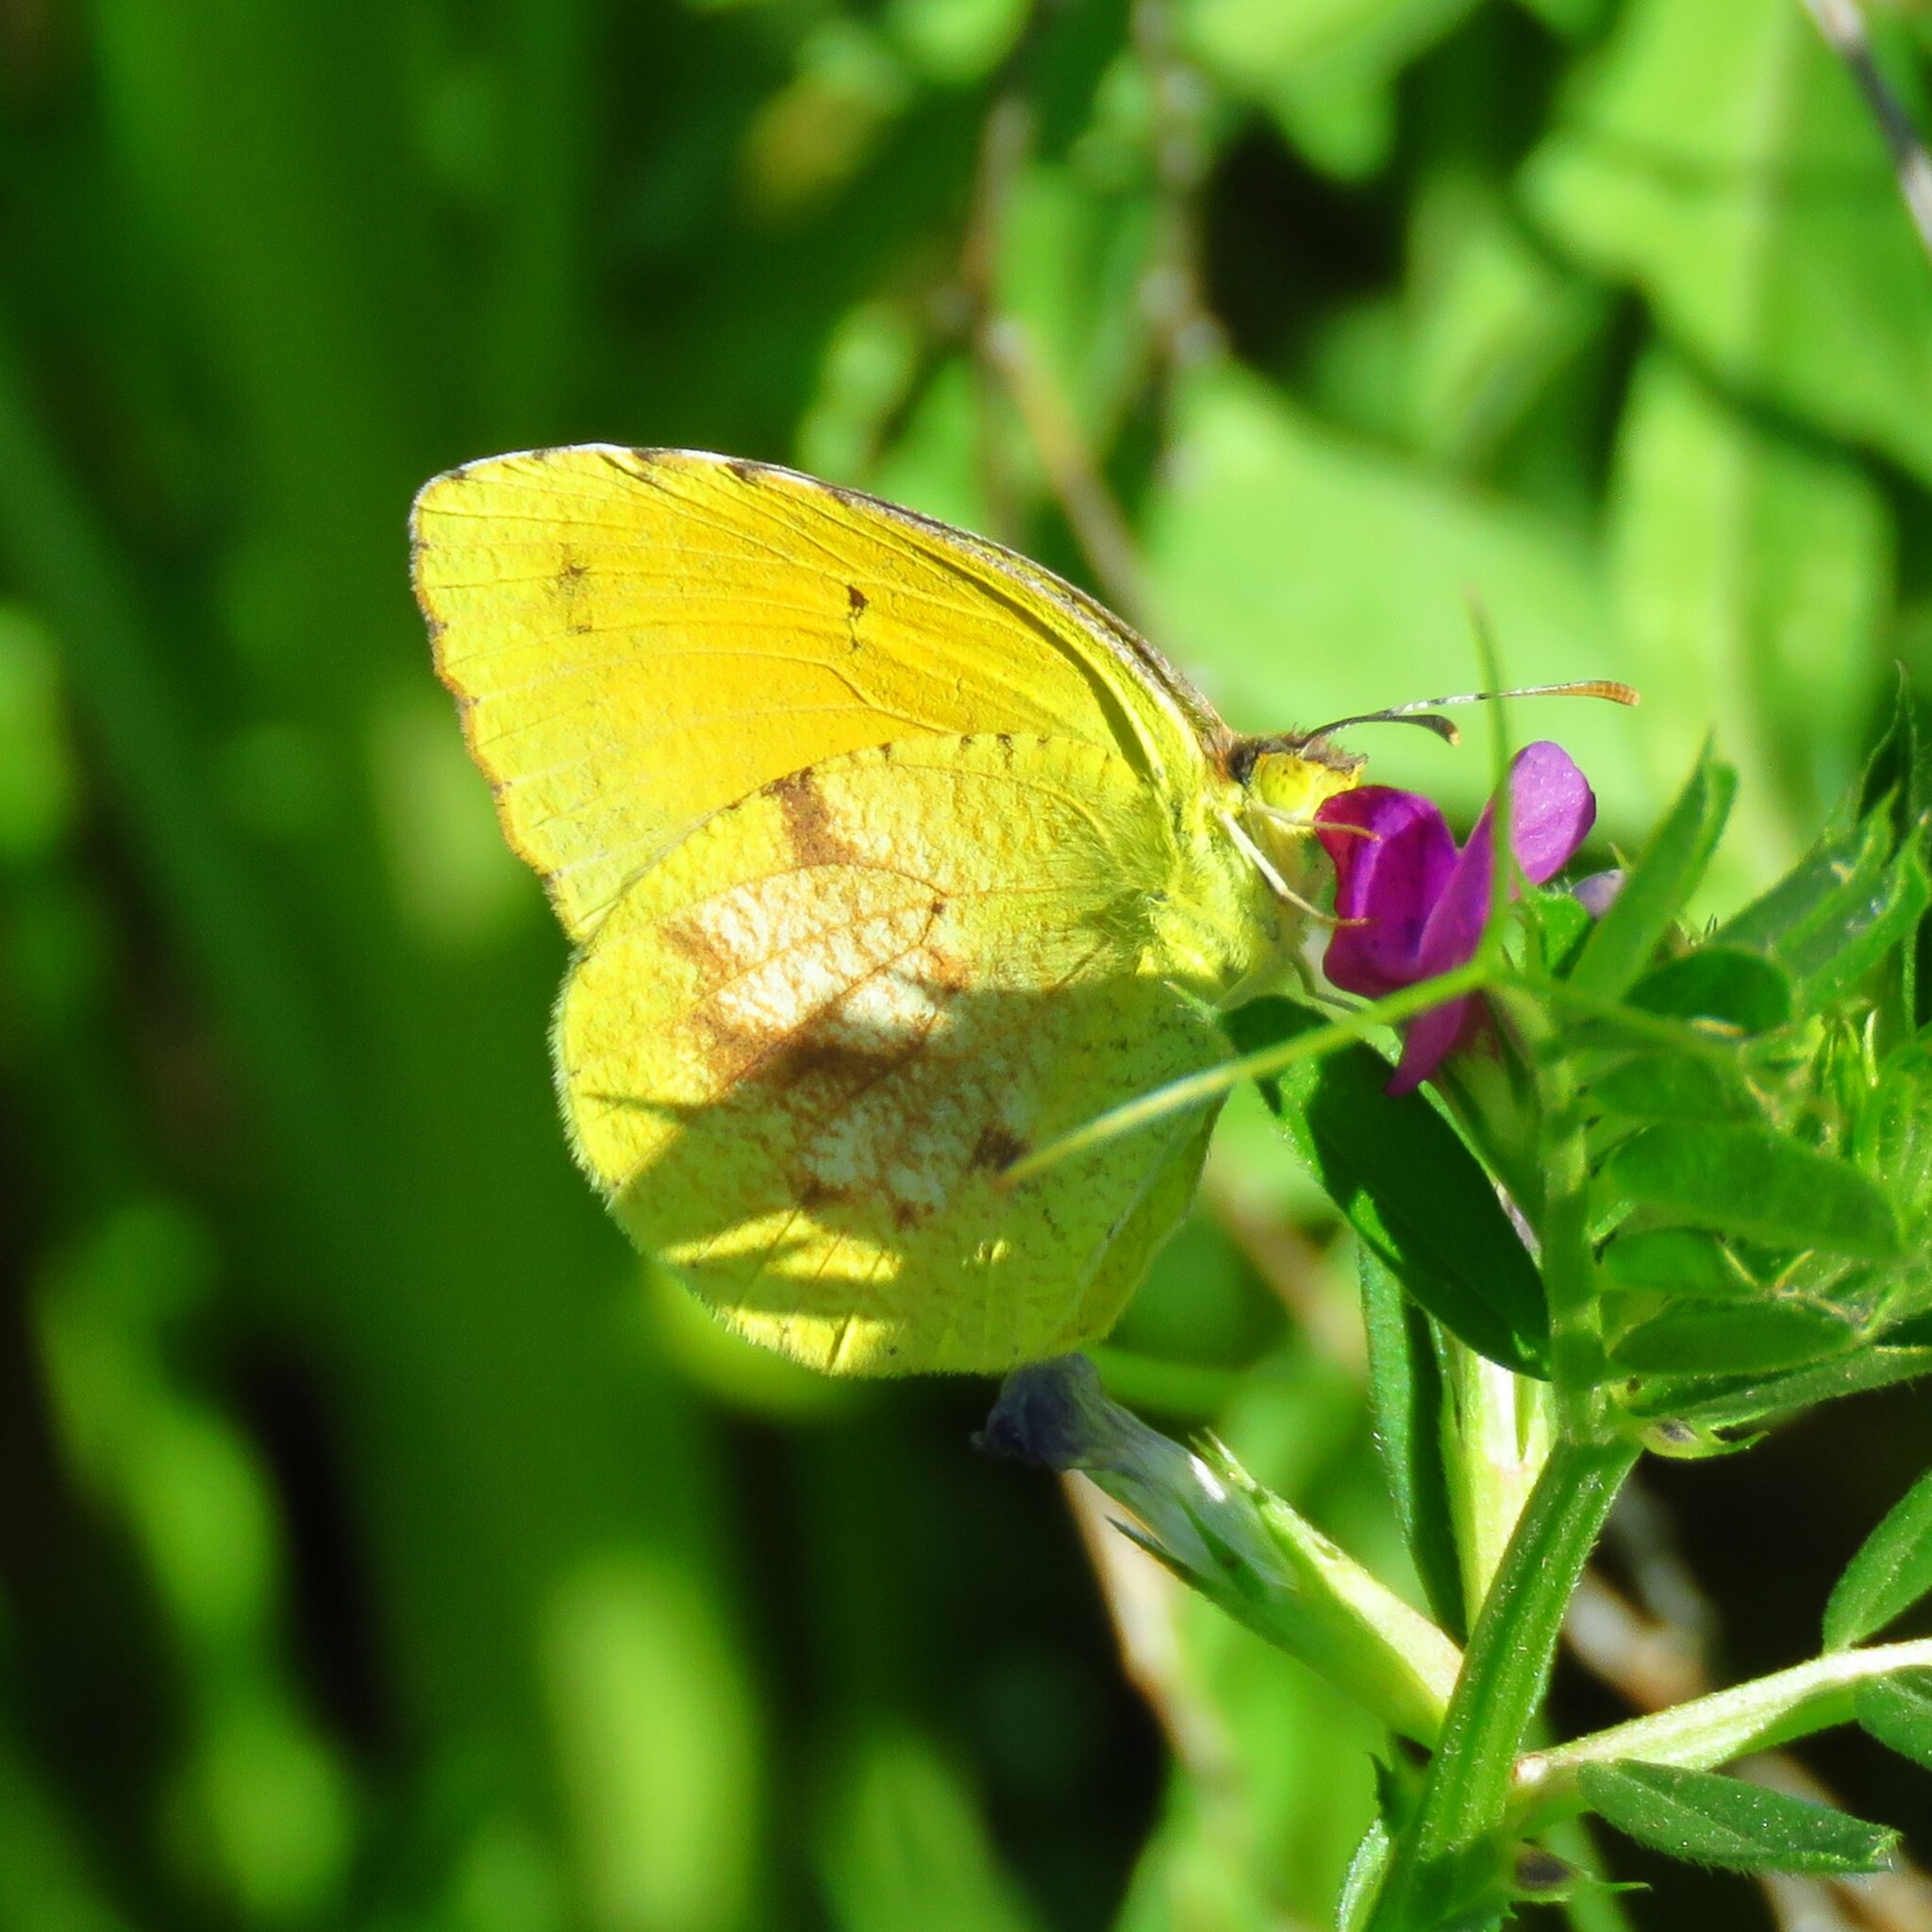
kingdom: Animalia
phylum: Arthropoda
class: Insecta
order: Lepidoptera
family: Pieridae
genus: Abaeis
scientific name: Abaeis nicippe
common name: Sleepy orange
